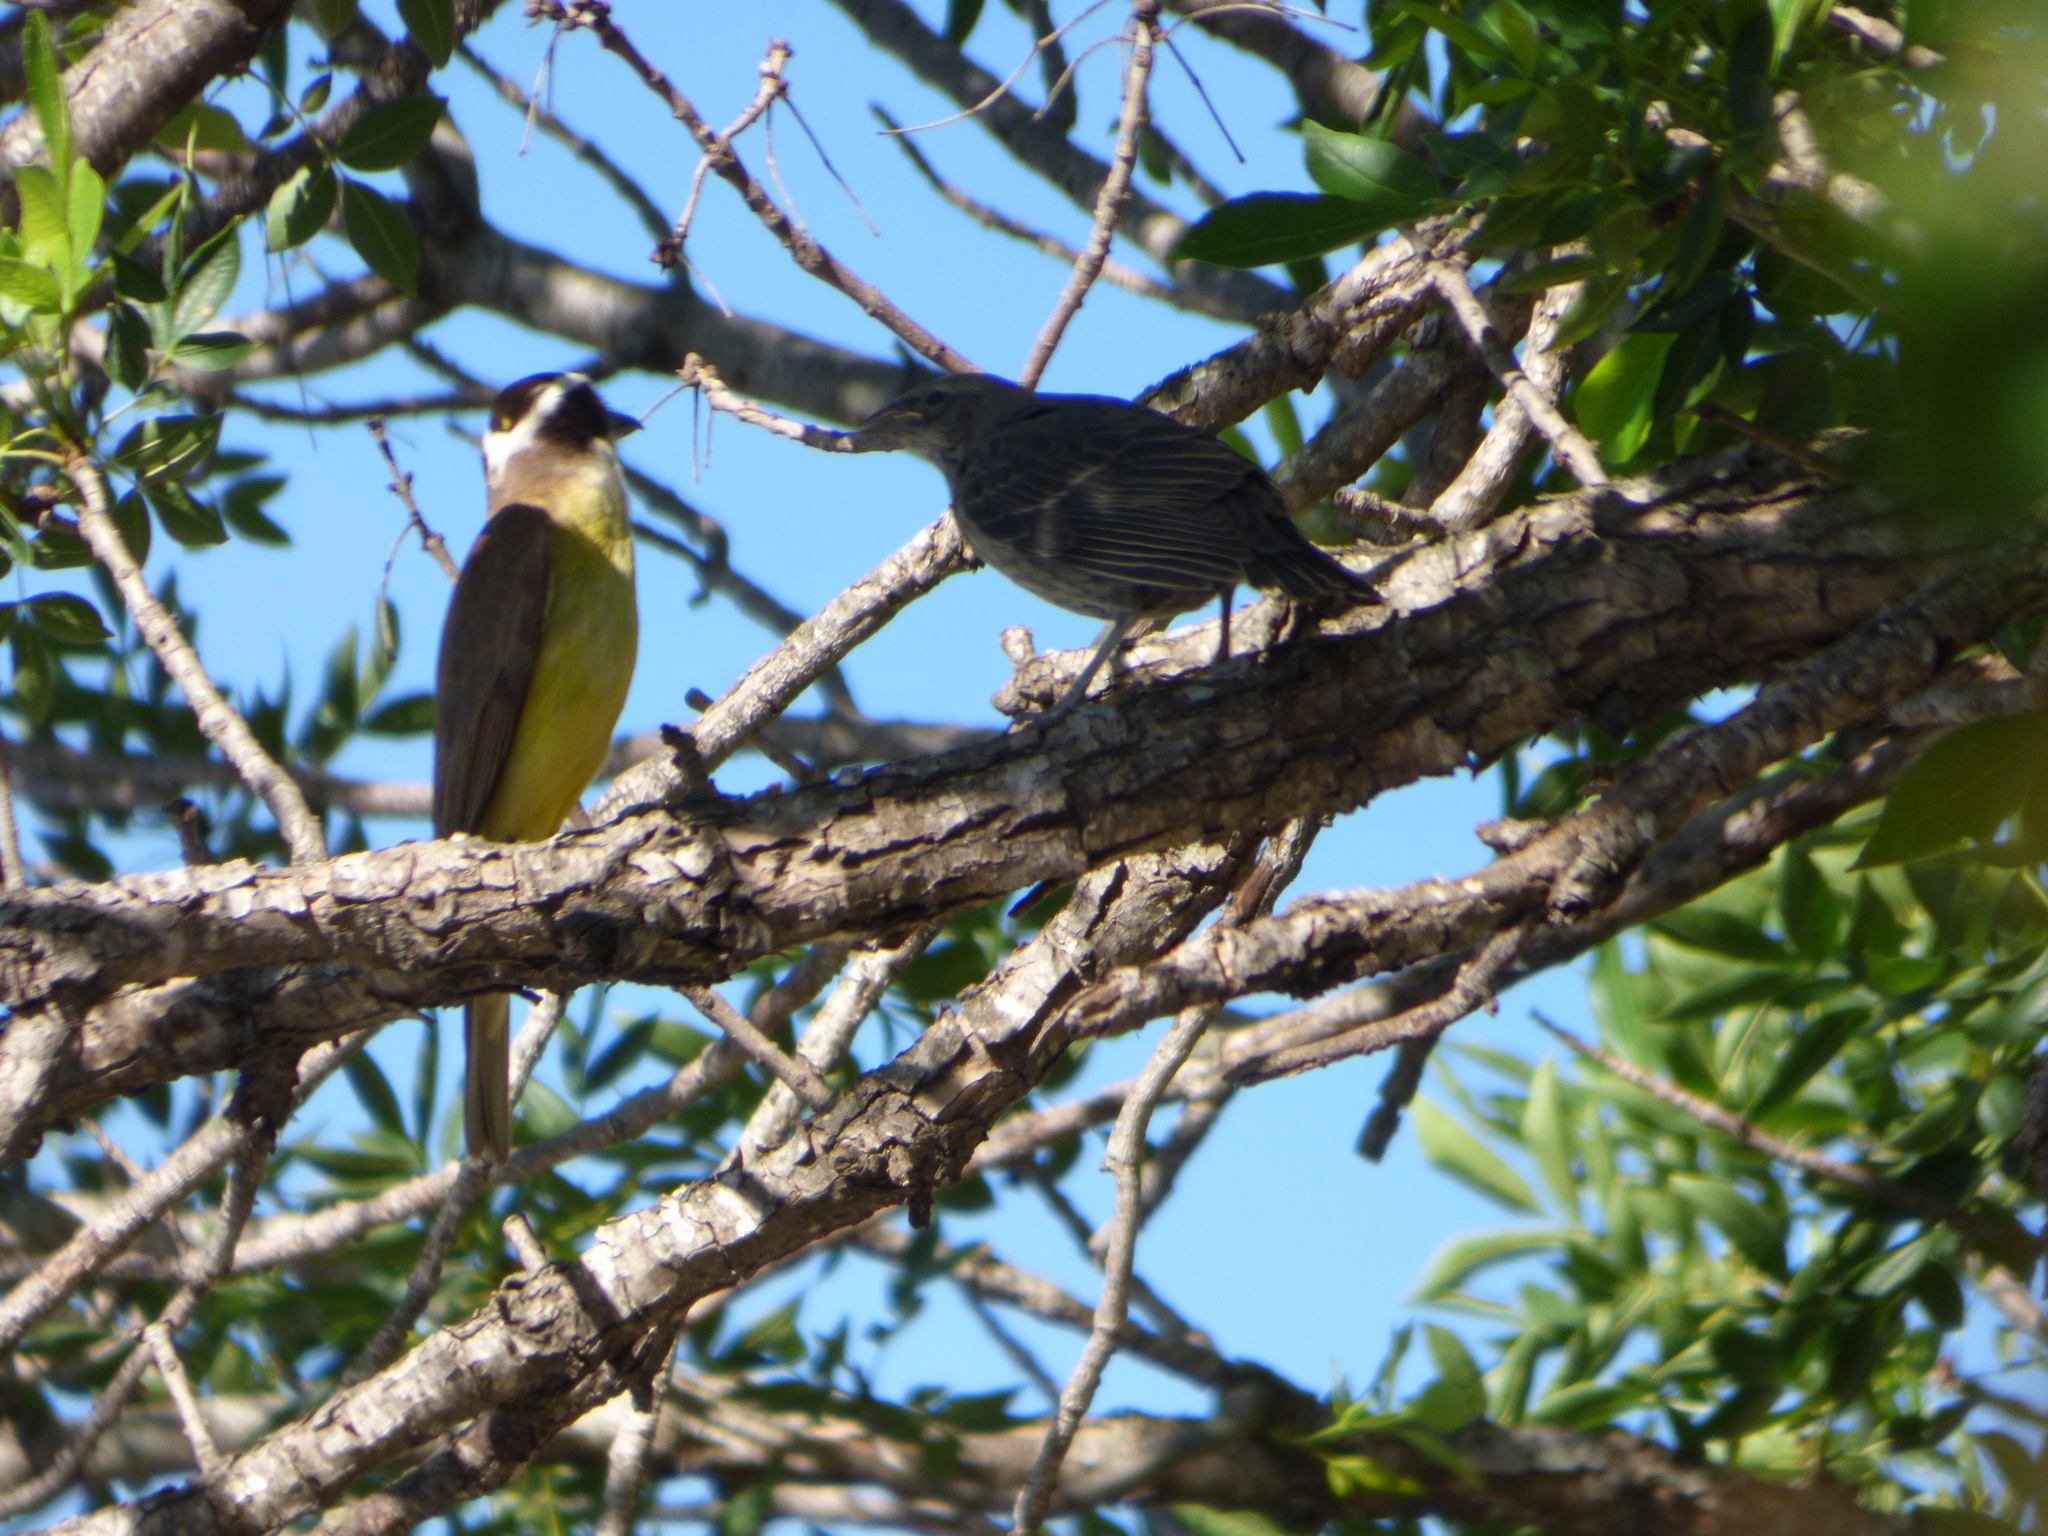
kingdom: Animalia
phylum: Chordata
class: Aves
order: Passeriformes
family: Tyrannidae
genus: Pitangus
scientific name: Pitangus sulphuratus
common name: Great kiskadee
